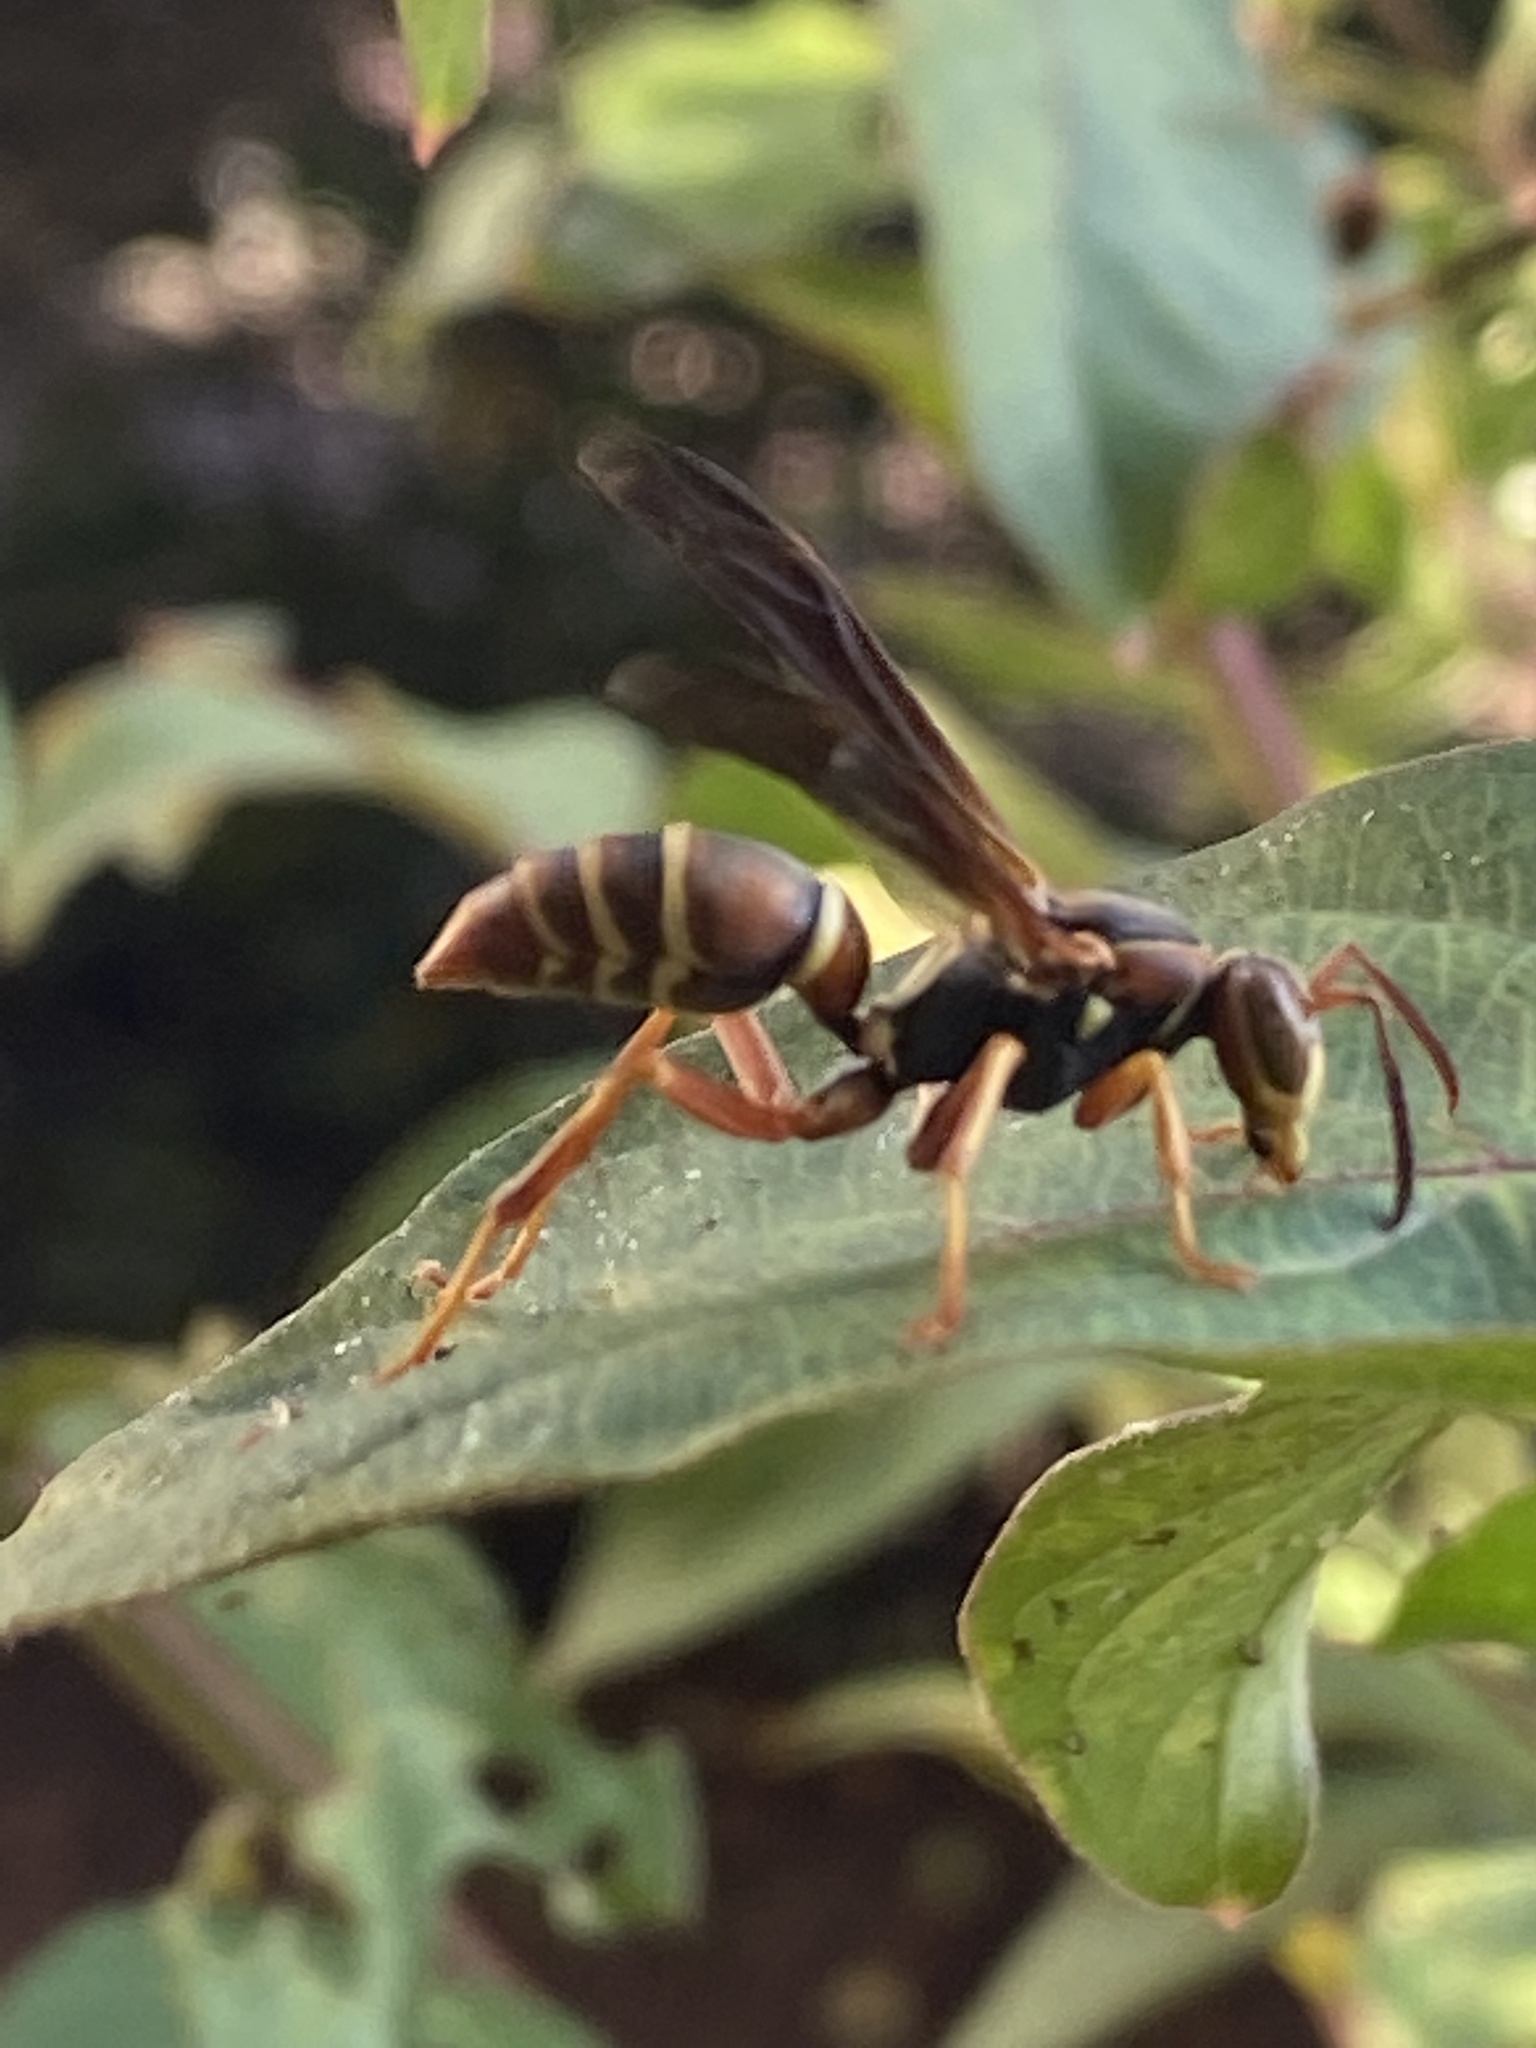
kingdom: Animalia
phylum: Arthropoda
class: Insecta
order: Hymenoptera
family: Eumenidae
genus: Polistes
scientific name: Polistes dorsalis
